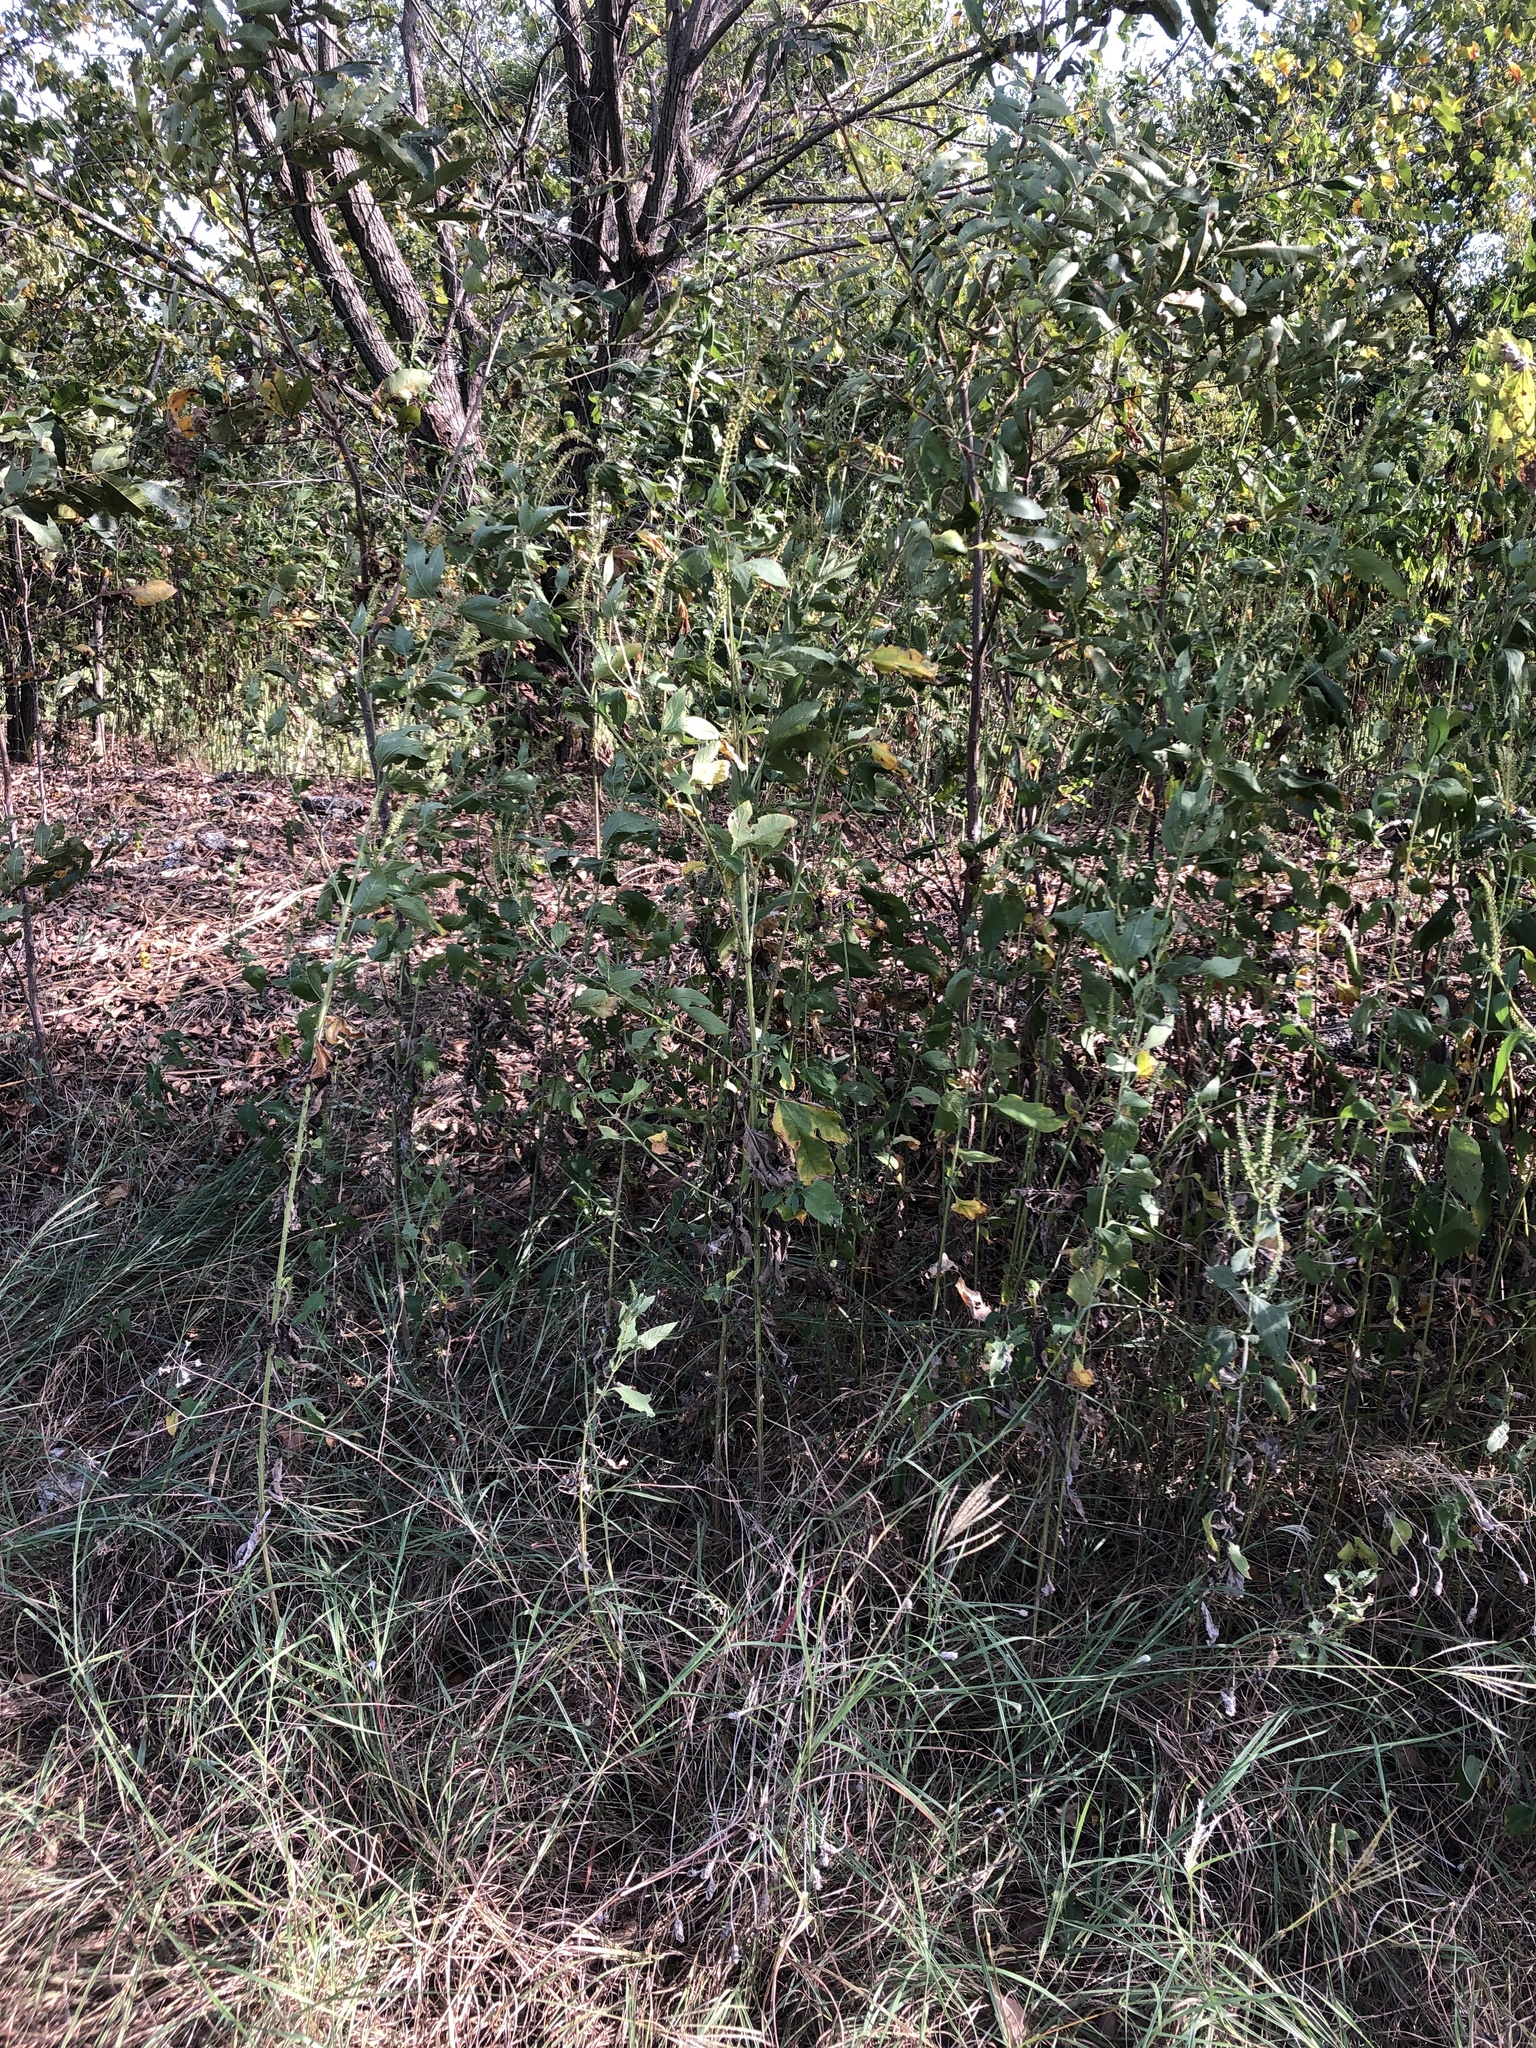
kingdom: Plantae
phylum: Tracheophyta
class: Magnoliopsida
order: Asterales
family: Asteraceae
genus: Ambrosia
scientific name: Ambrosia trifida
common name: Giant ragweed
